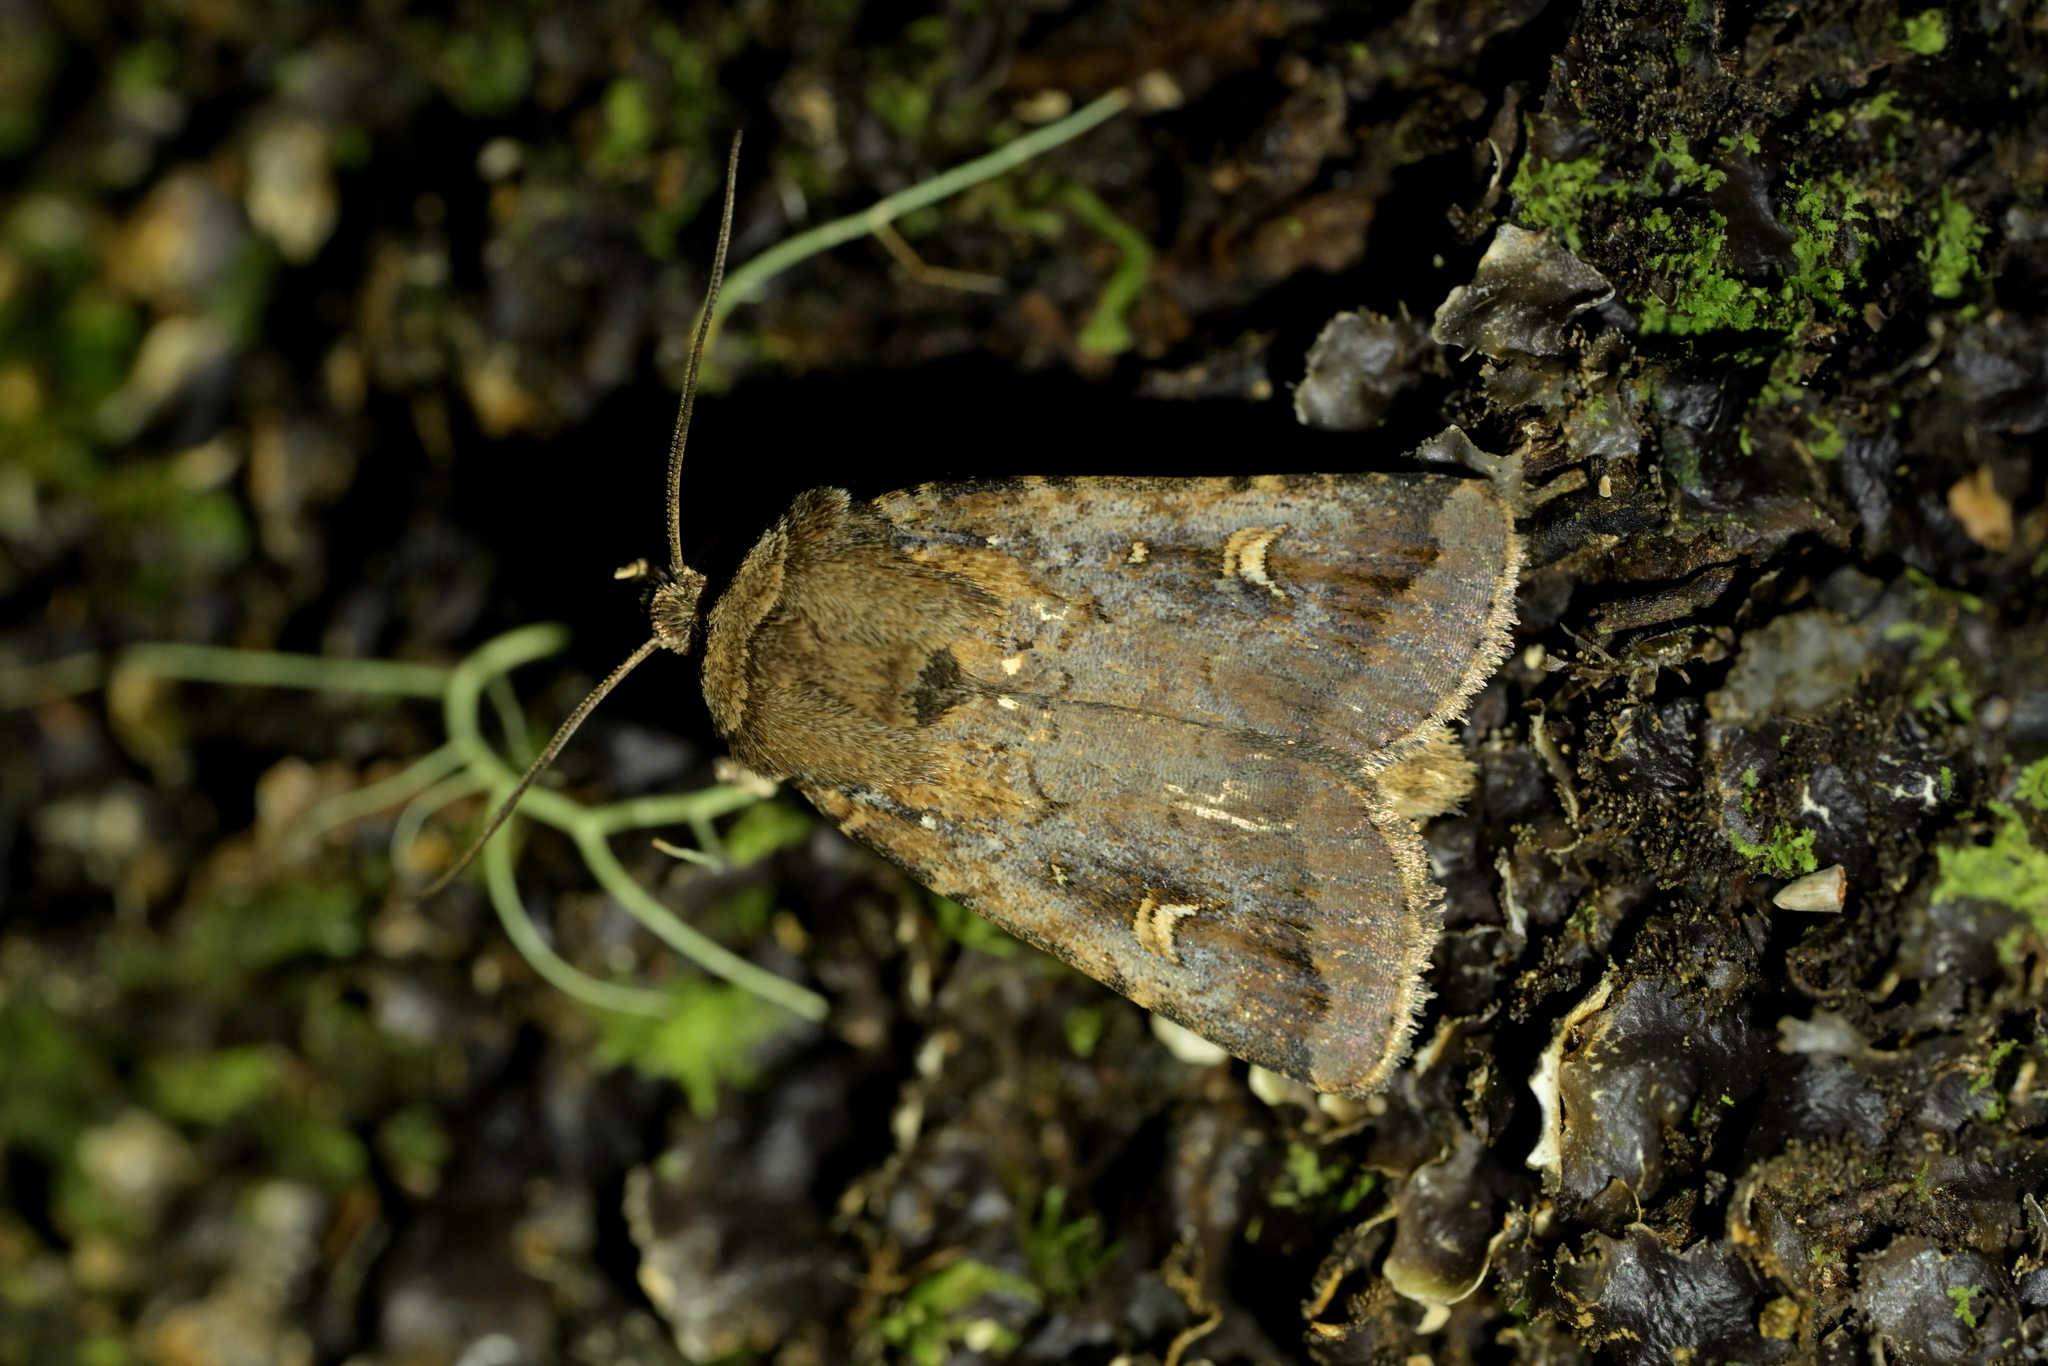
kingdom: Animalia
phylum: Arthropoda
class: Insecta
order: Lepidoptera
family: Noctuidae
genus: Proteuxoa
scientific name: Proteuxoa tetronycha
